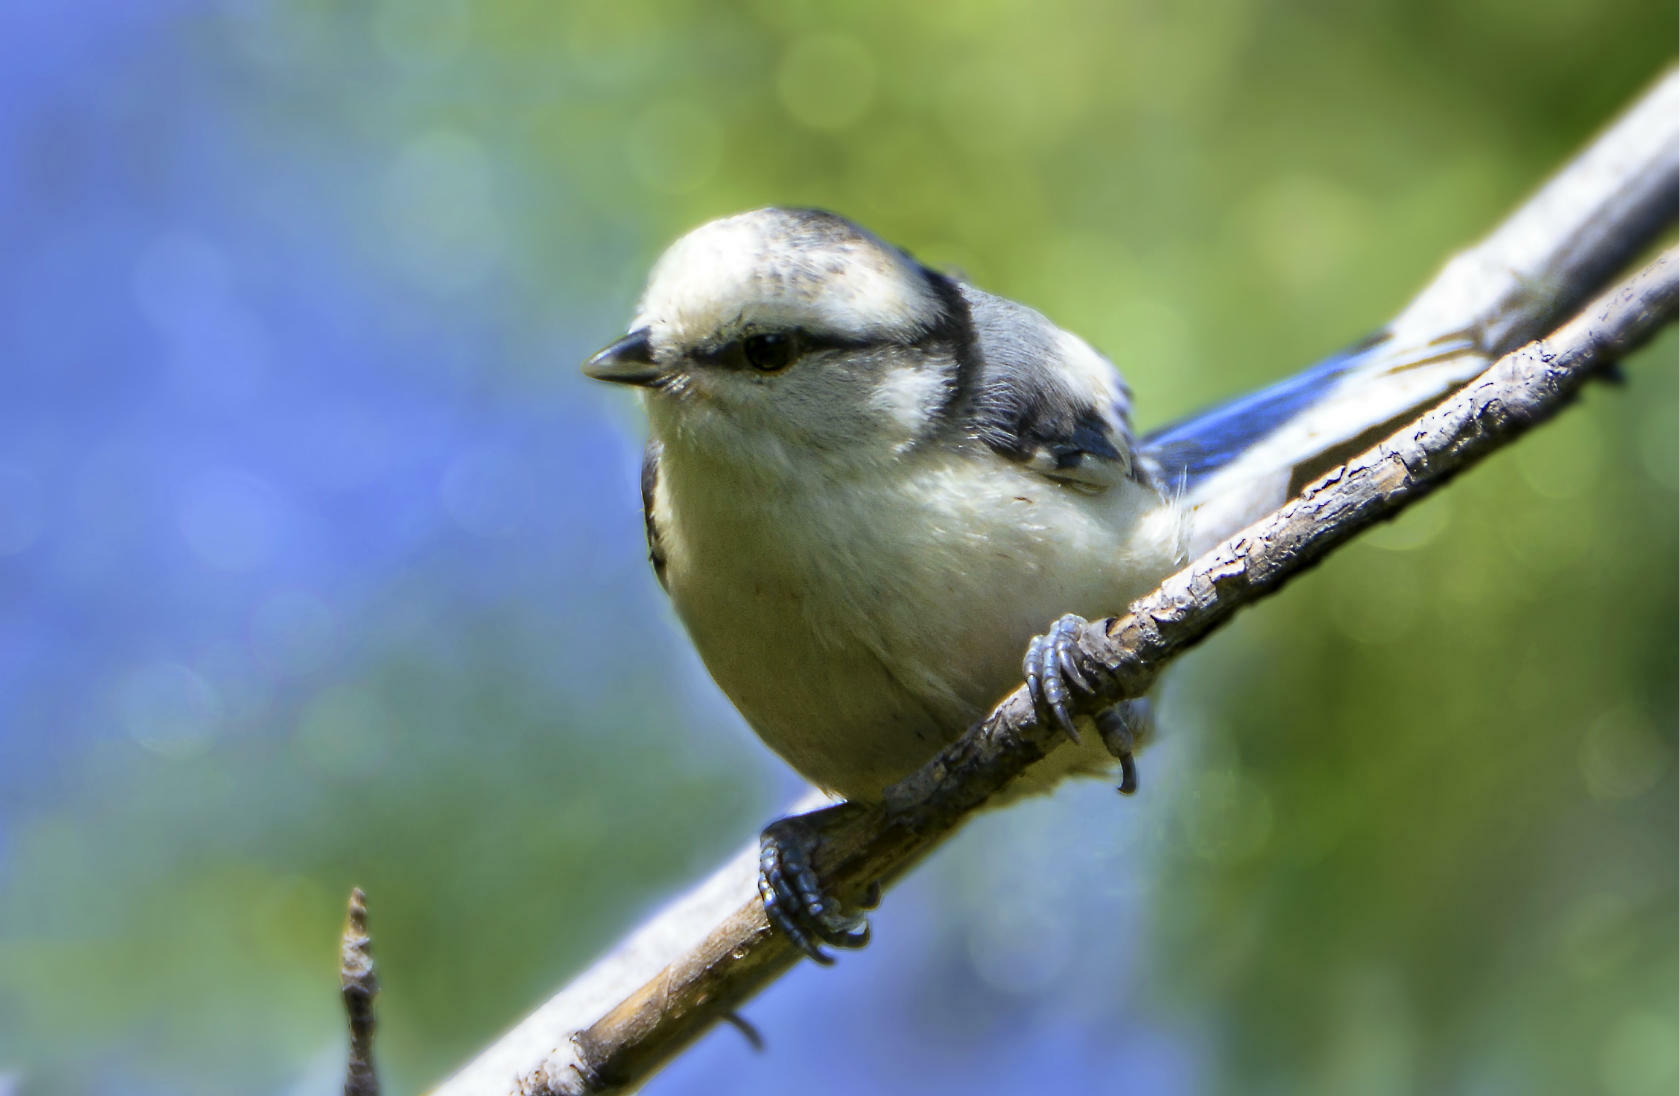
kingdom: Animalia
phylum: Chordata
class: Aves
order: Passeriformes
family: Paridae
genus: Cyanistes
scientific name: Cyanistes cyanus
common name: Azure tit
